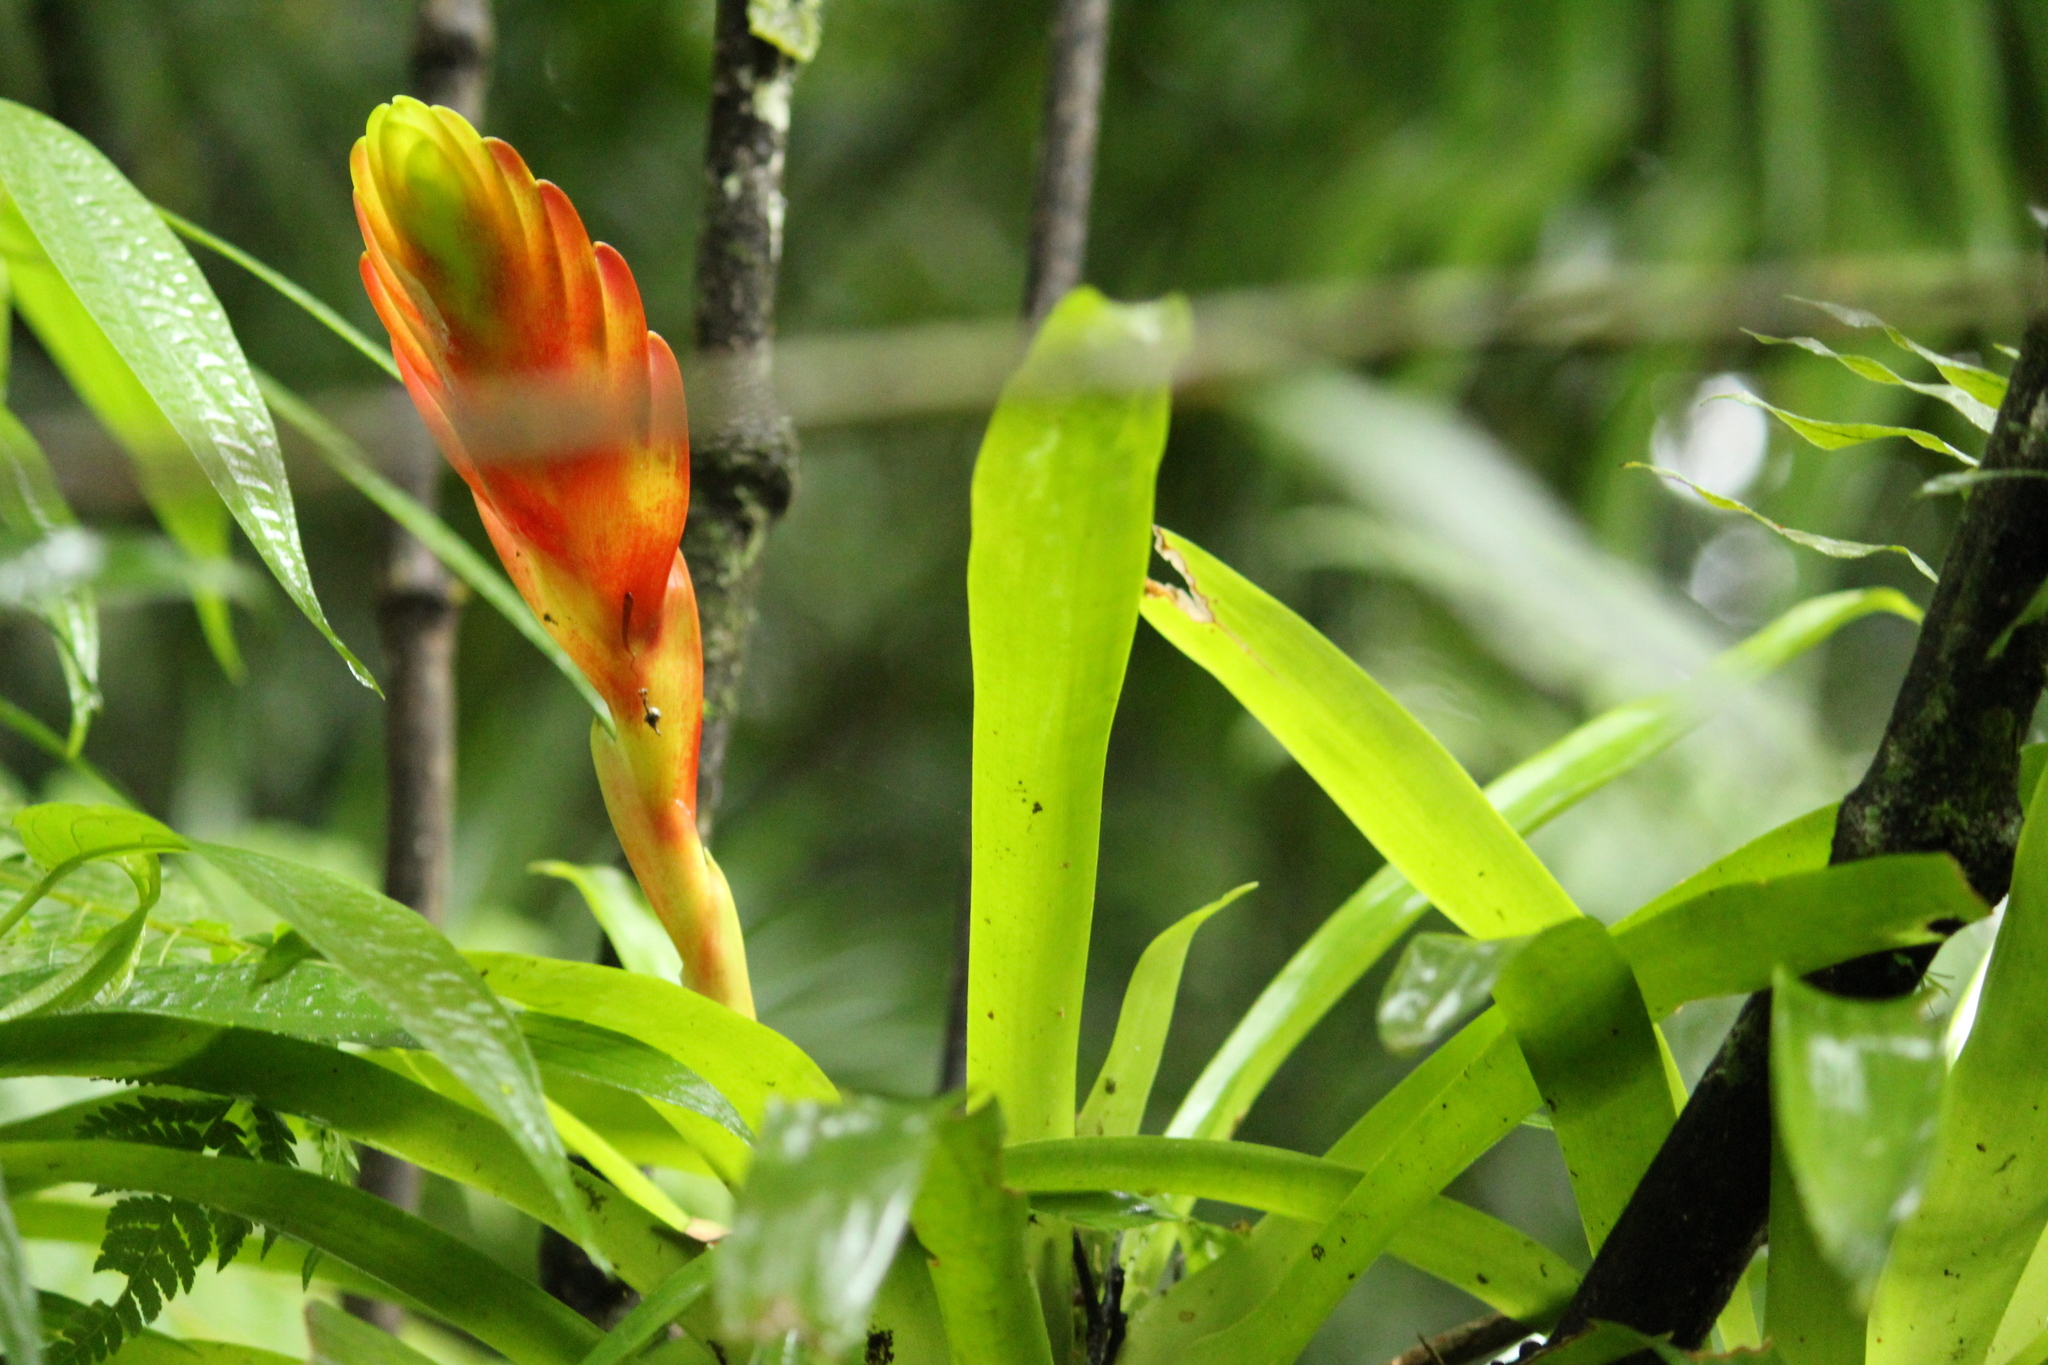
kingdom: Plantae
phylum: Tracheophyta
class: Liliopsida
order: Poales
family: Bromeliaceae
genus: Vriesea
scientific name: Vriesea incurvata
